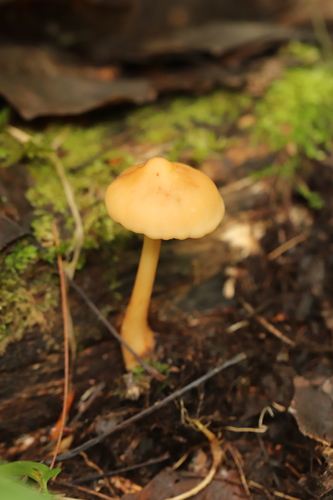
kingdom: Fungi
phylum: Basidiomycota
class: Agaricomycetes
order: Agaricales
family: Omphalotaceae
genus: Gymnopus
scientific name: Gymnopus dryophilus
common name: Penny top
